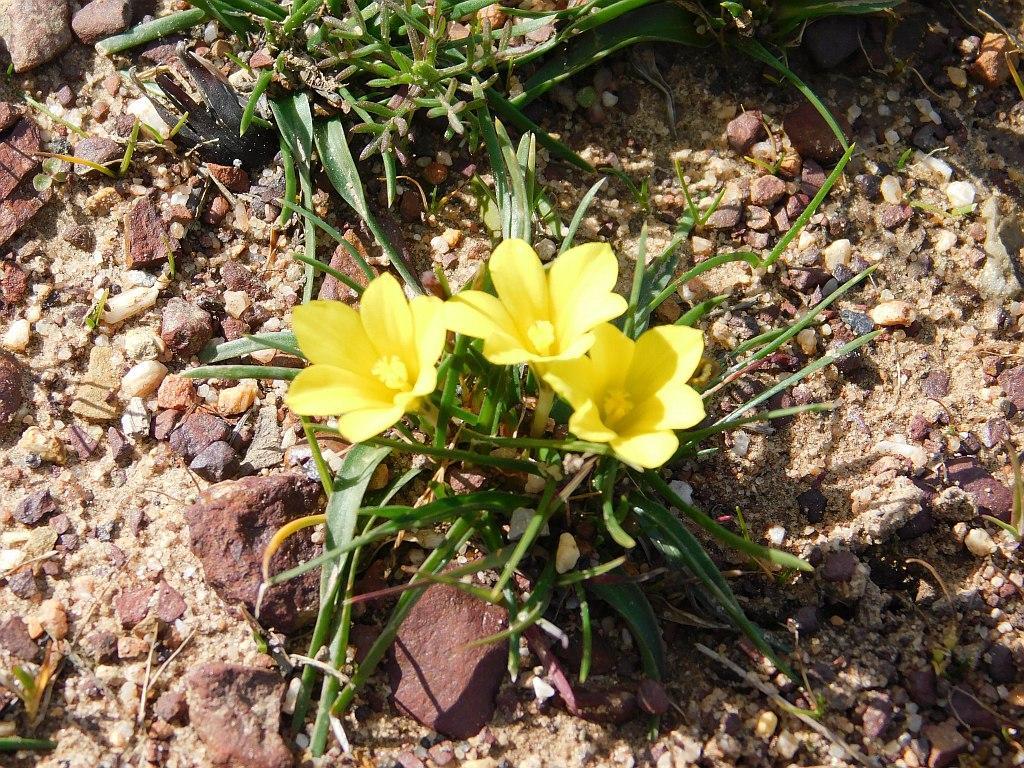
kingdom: Plantae
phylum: Tracheophyta
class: Liliopsida
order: Asparagales
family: Iridaceae
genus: Moraea
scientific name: Moraea galaxia
